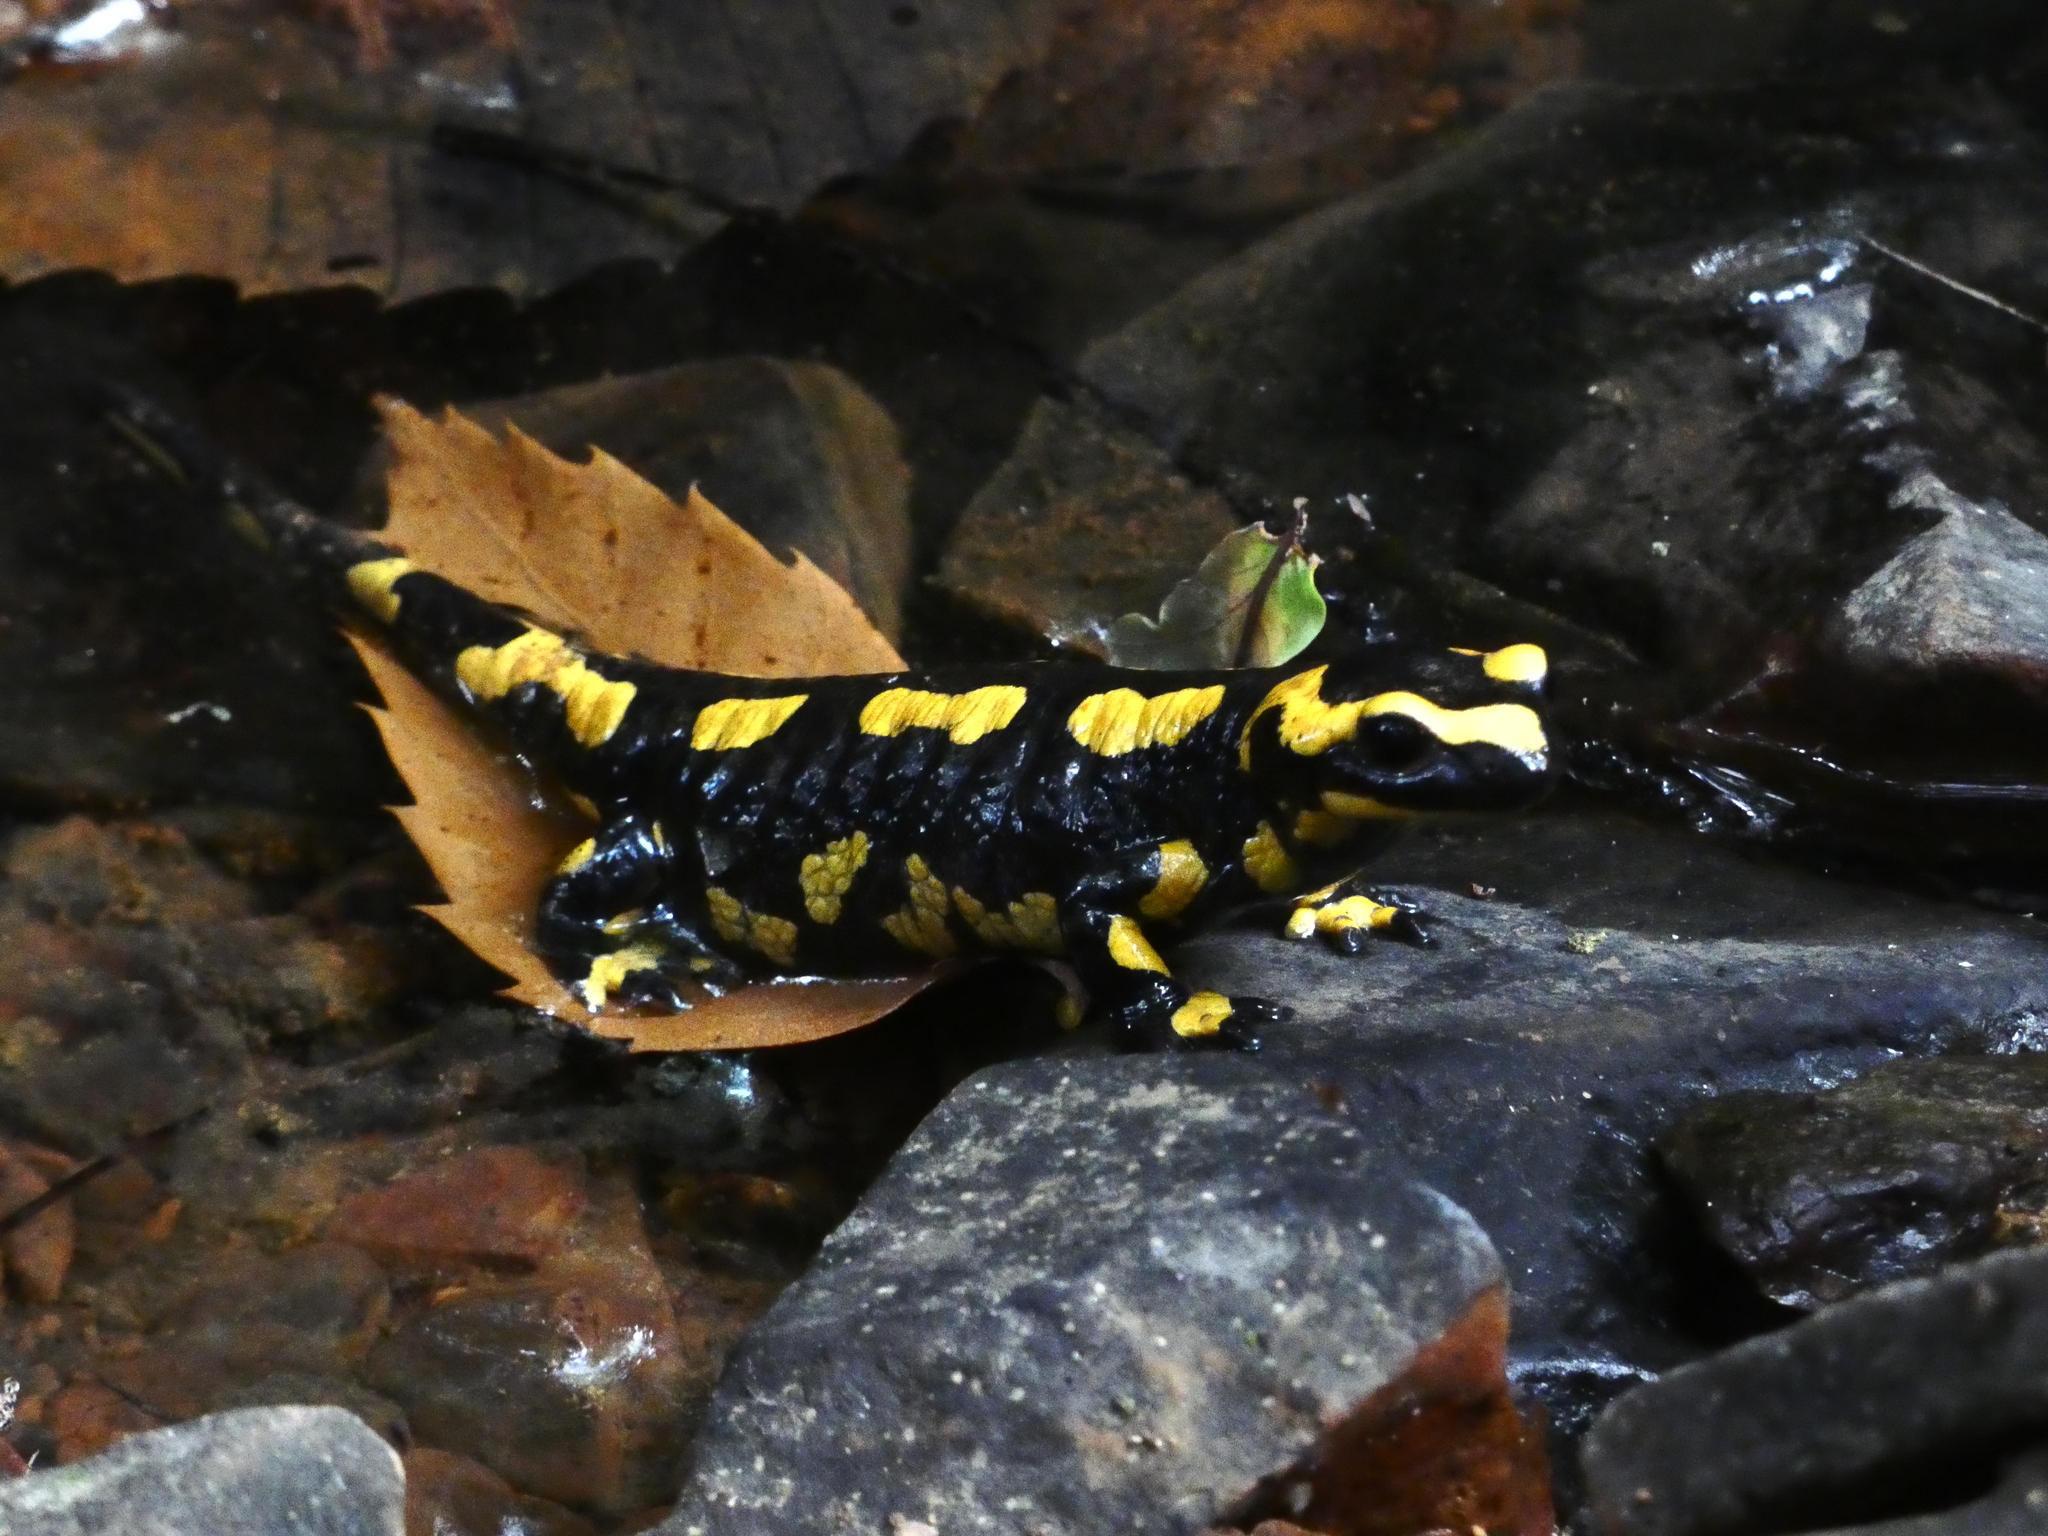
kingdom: Animalia
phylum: Chordata
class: Amphibia
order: Caudata
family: Salamandridae
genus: Salamandra
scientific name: Salamandra salamandra
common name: Fire salamander
